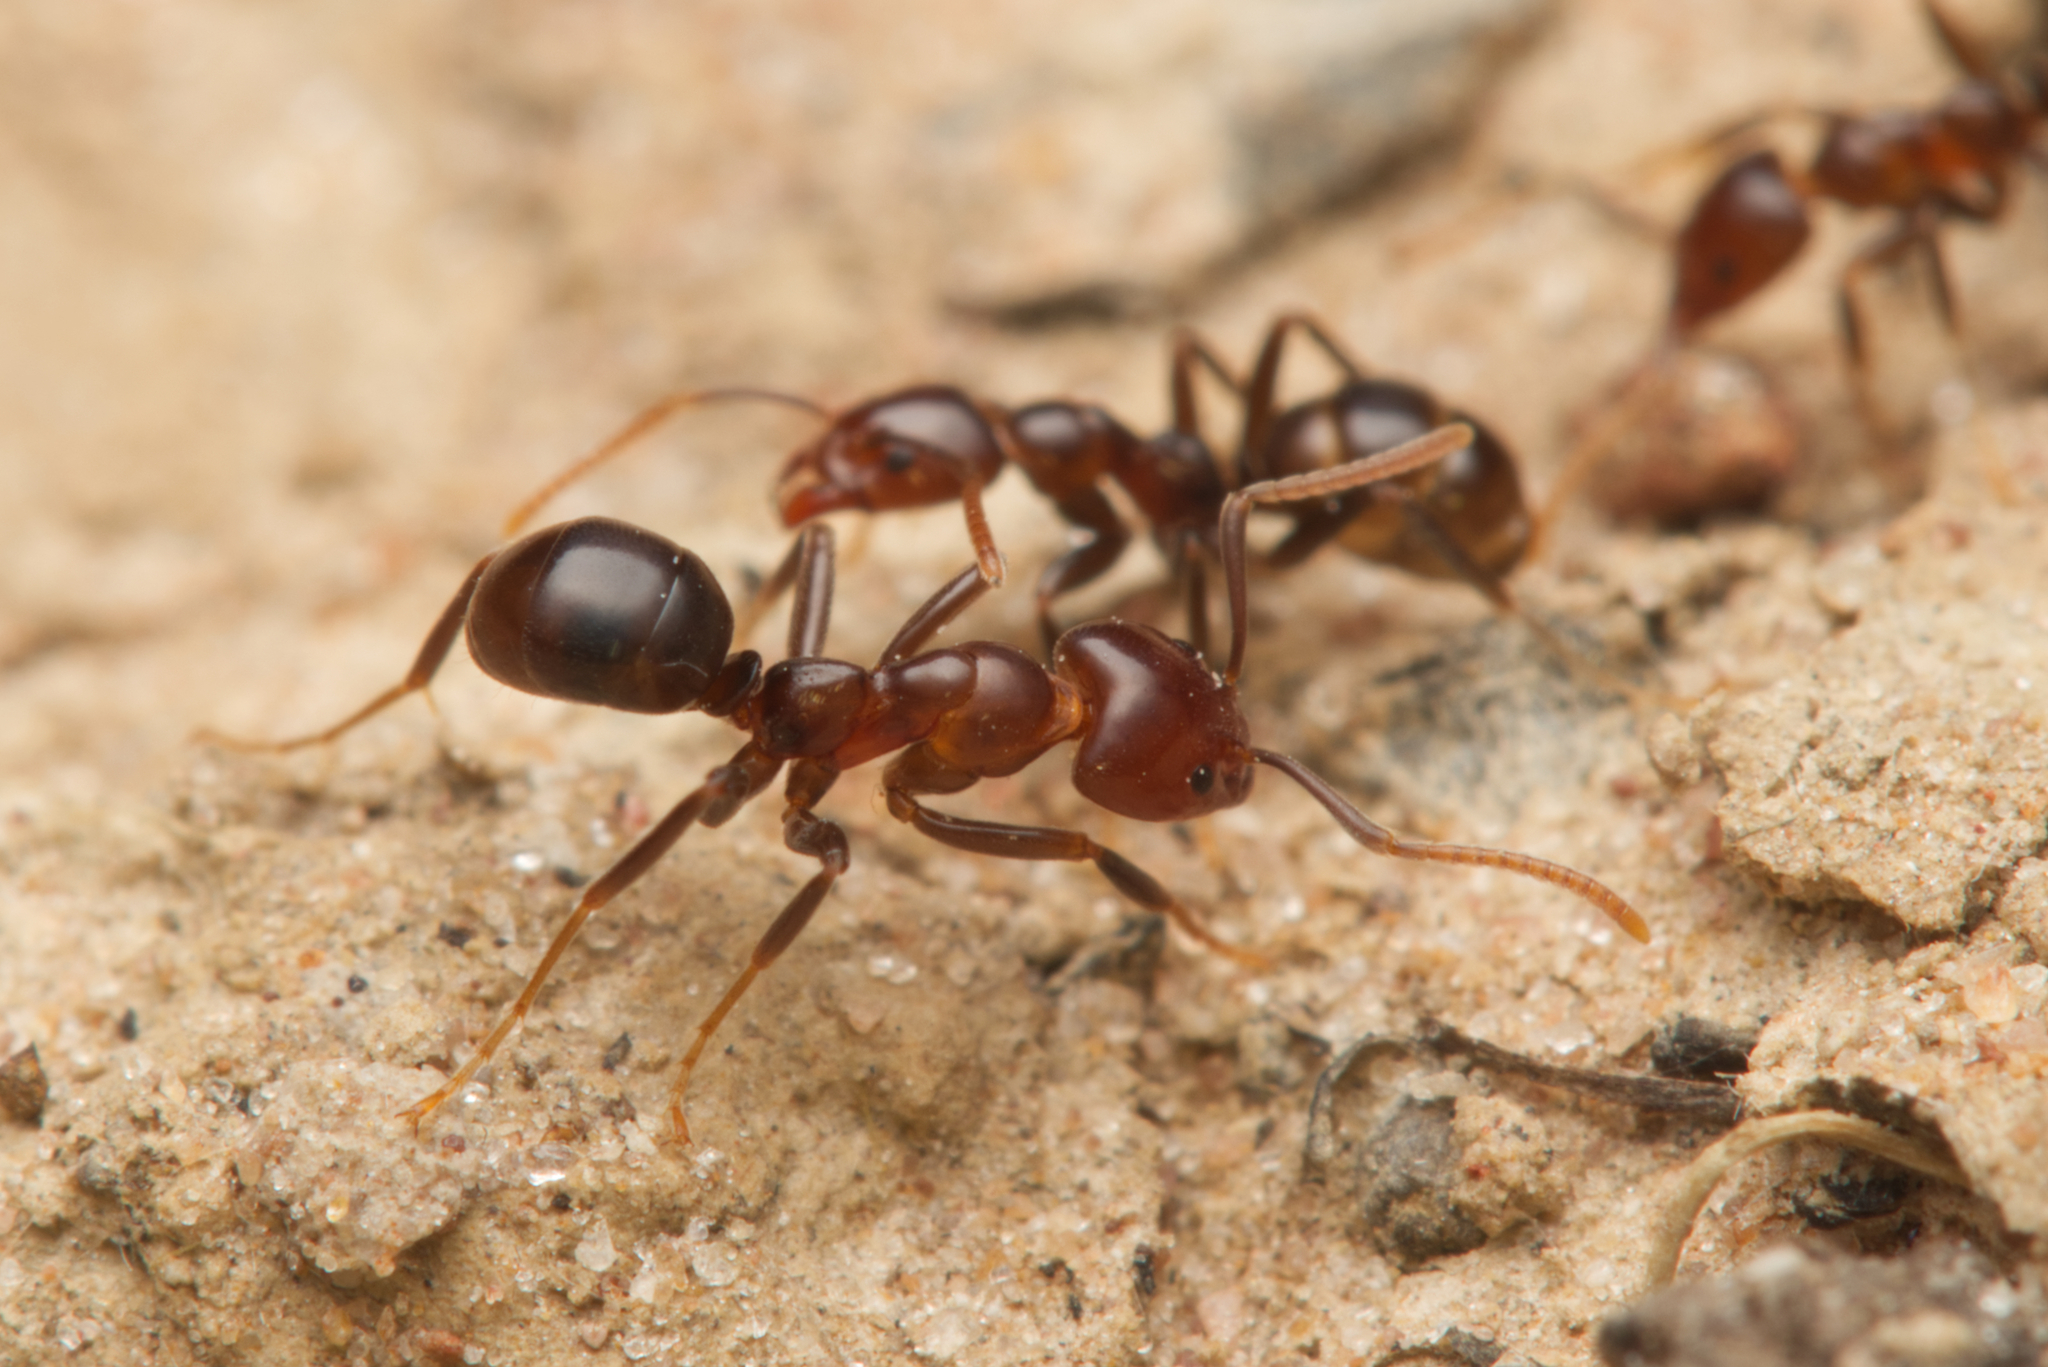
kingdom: Animalia
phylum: Arthropoda
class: Insecta
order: Hymenoptera
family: Formicidae
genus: Papyrius
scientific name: Papyrius nitidus
